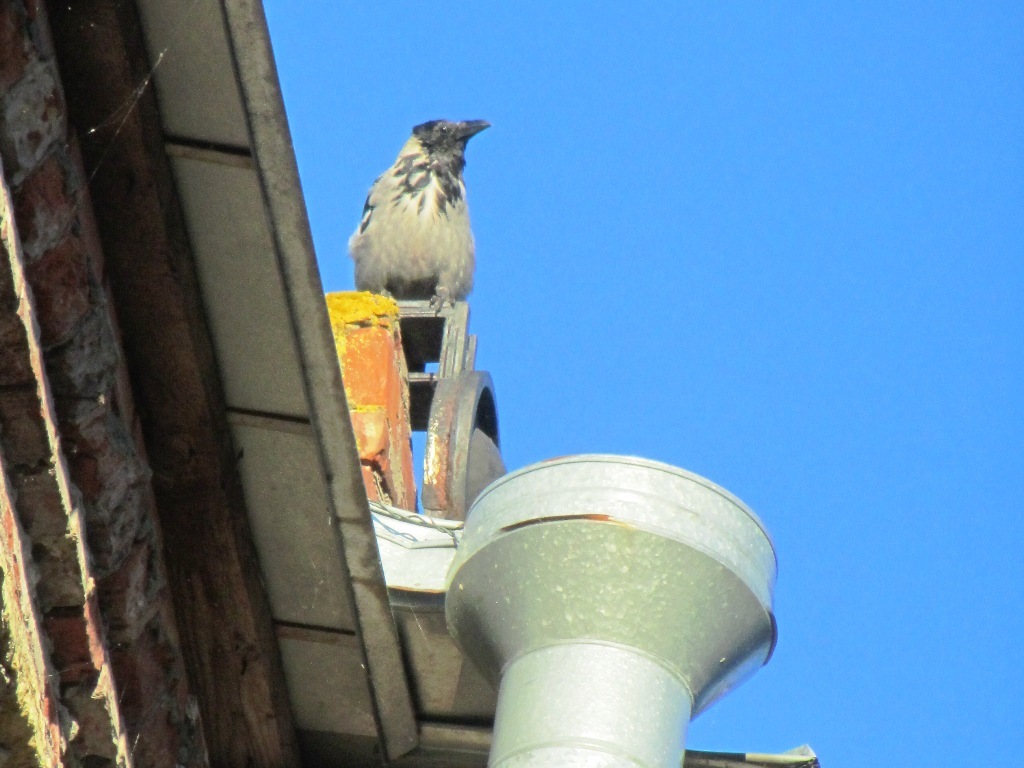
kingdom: Animalia
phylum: Chordata
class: Aves
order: Passeriformes
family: Corvidae
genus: Corvus
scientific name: Corvus cornix
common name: Hooded crow
